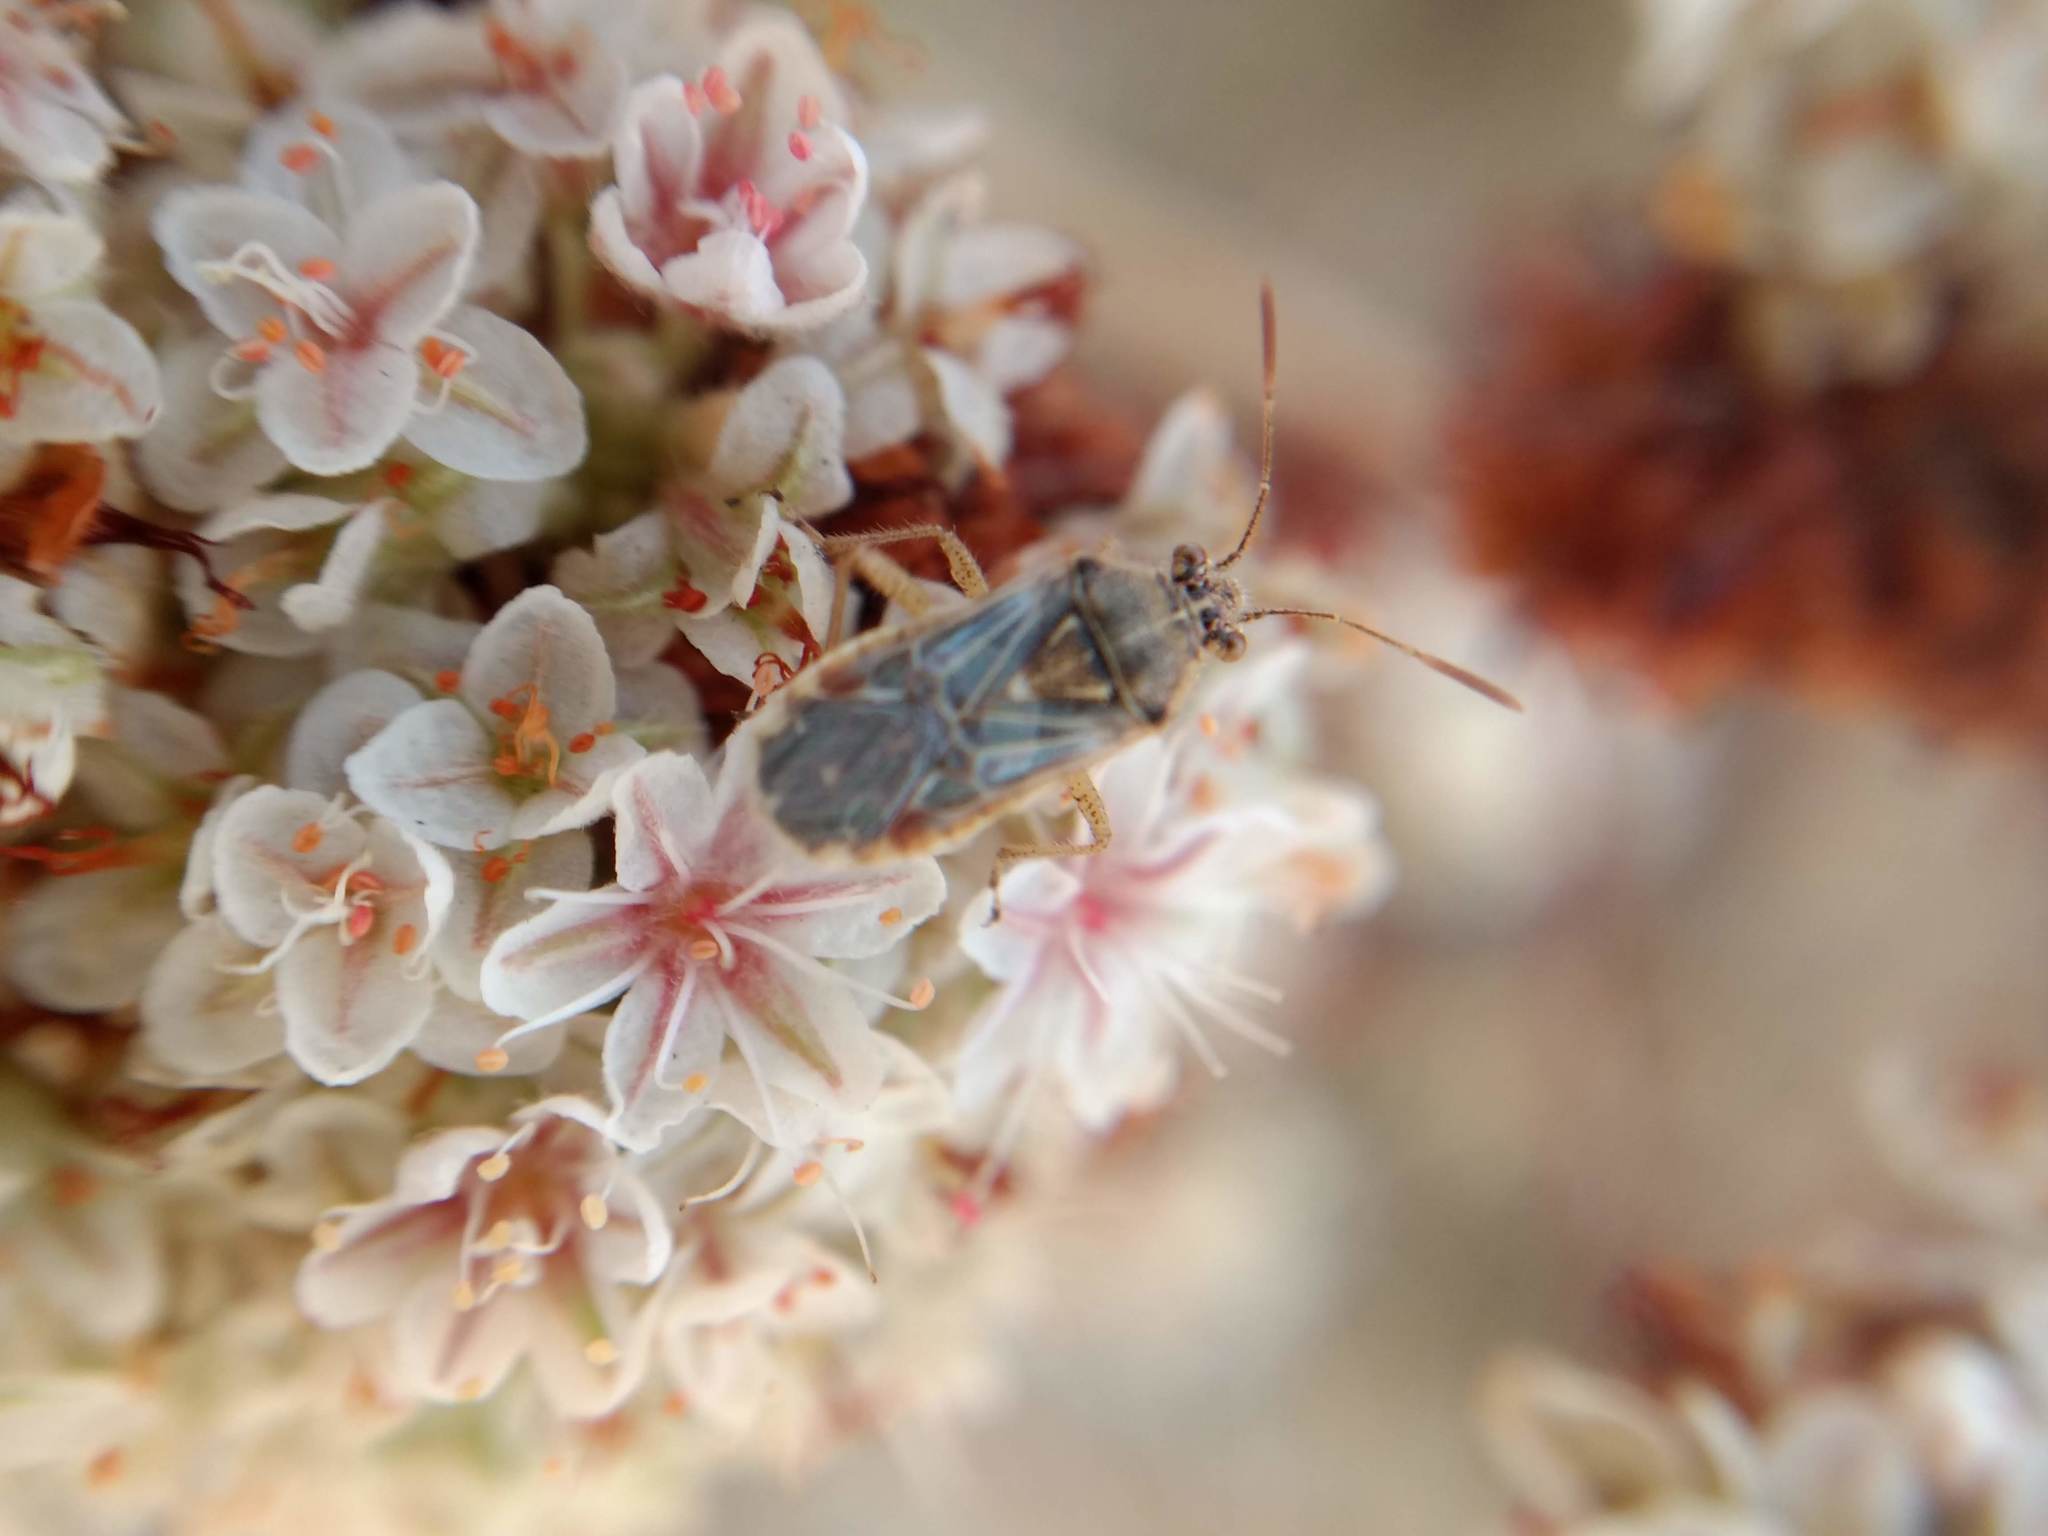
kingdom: Animalia
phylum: Arthropoda
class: Insecta
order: Hemiptera
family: Rhopalidae
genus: Liorhyssus
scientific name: Liorhyssus hyalinus
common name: Scentless plant bug
